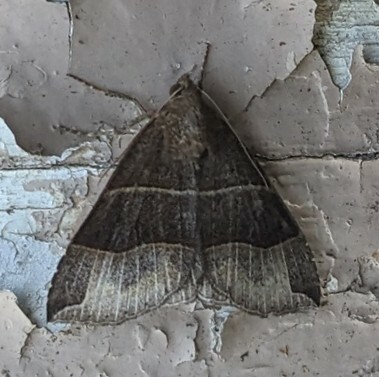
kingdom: Animalia
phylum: Arthropoda
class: Insecta
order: Lepidoptera
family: Erebidae
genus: Parallelia
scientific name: Parallelia bistriaris
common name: Maple looper moth
